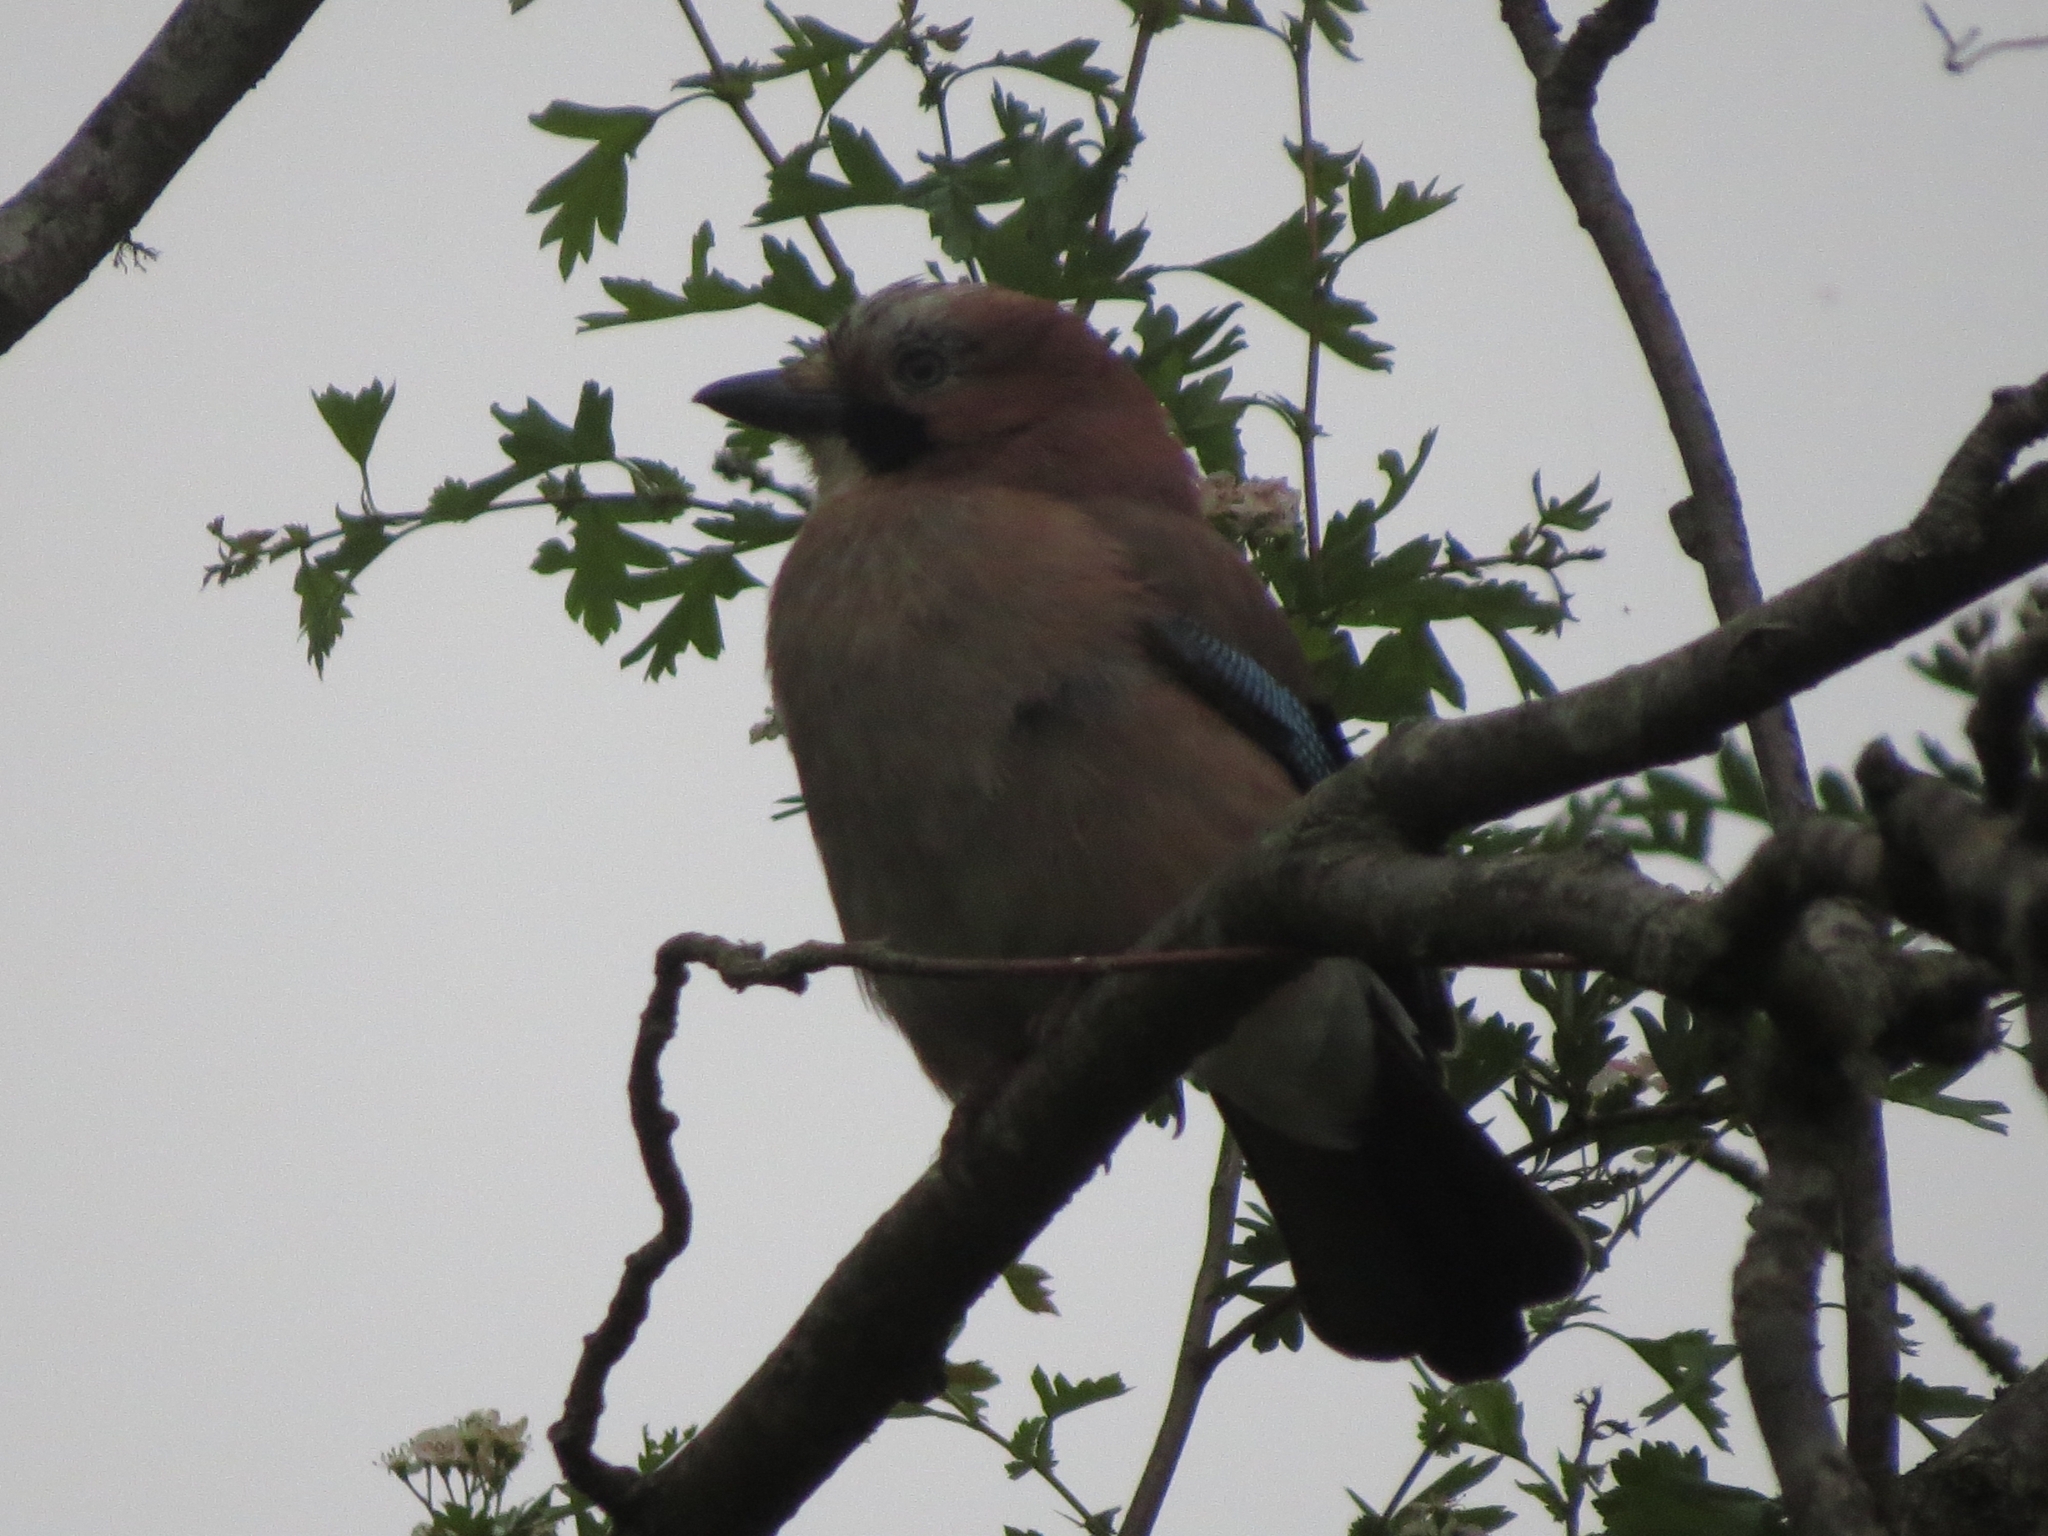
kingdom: Animalia
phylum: Chordata
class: Aves
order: Passeriformes
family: Corvidae
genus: Garrulus
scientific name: Garrulus glandarius
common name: Eurasian jay
